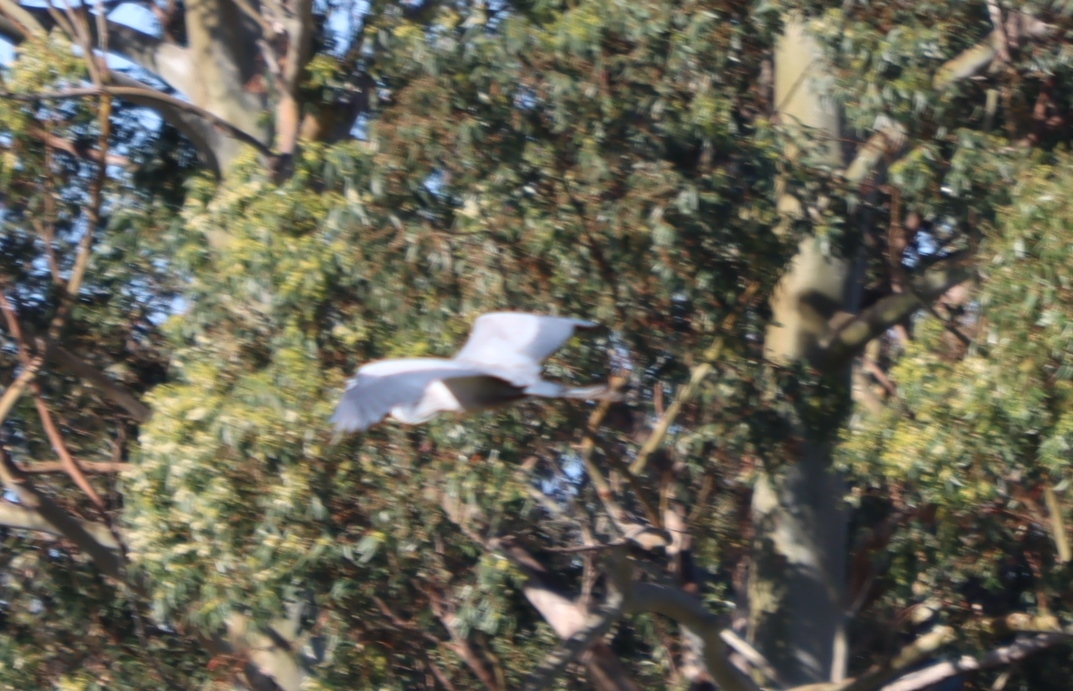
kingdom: Animalia
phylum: Chordata
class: Aves
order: Pelecaniformes
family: Ardeidae
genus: Ardea
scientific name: Ardea melanocephala
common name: Black-headed heron
